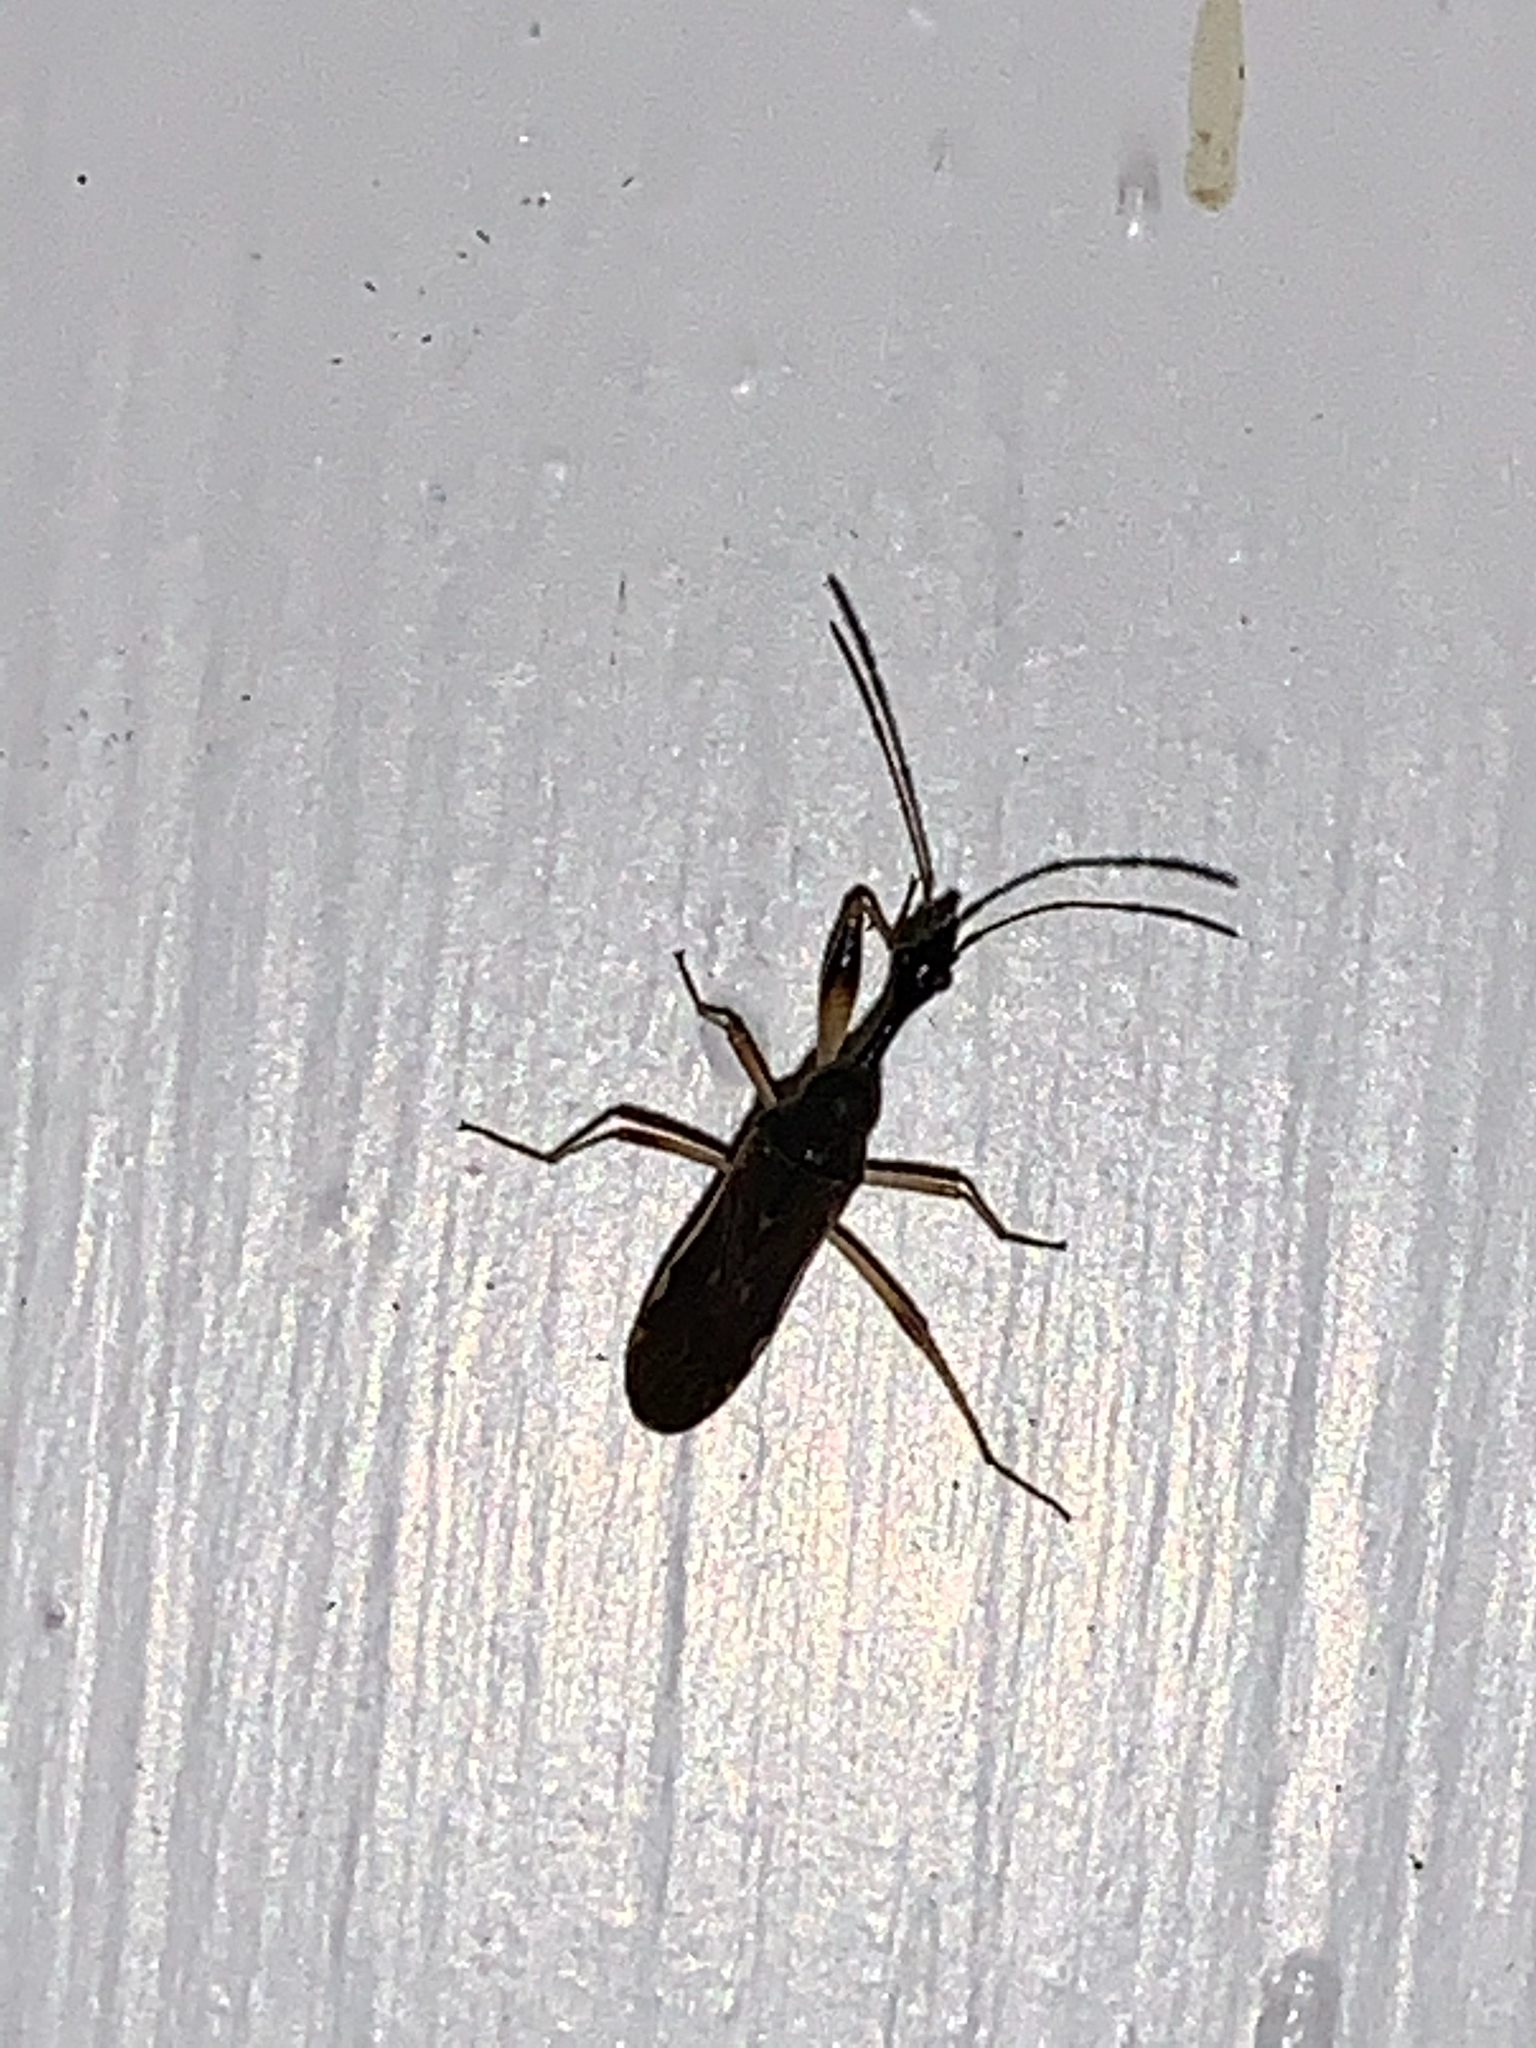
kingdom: Animalia
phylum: Arthropoda
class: Insecta
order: Hemiptera
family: Rhyparochromidae
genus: Myodocha
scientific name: Myodocha serripes
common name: Long-necked seed bug
